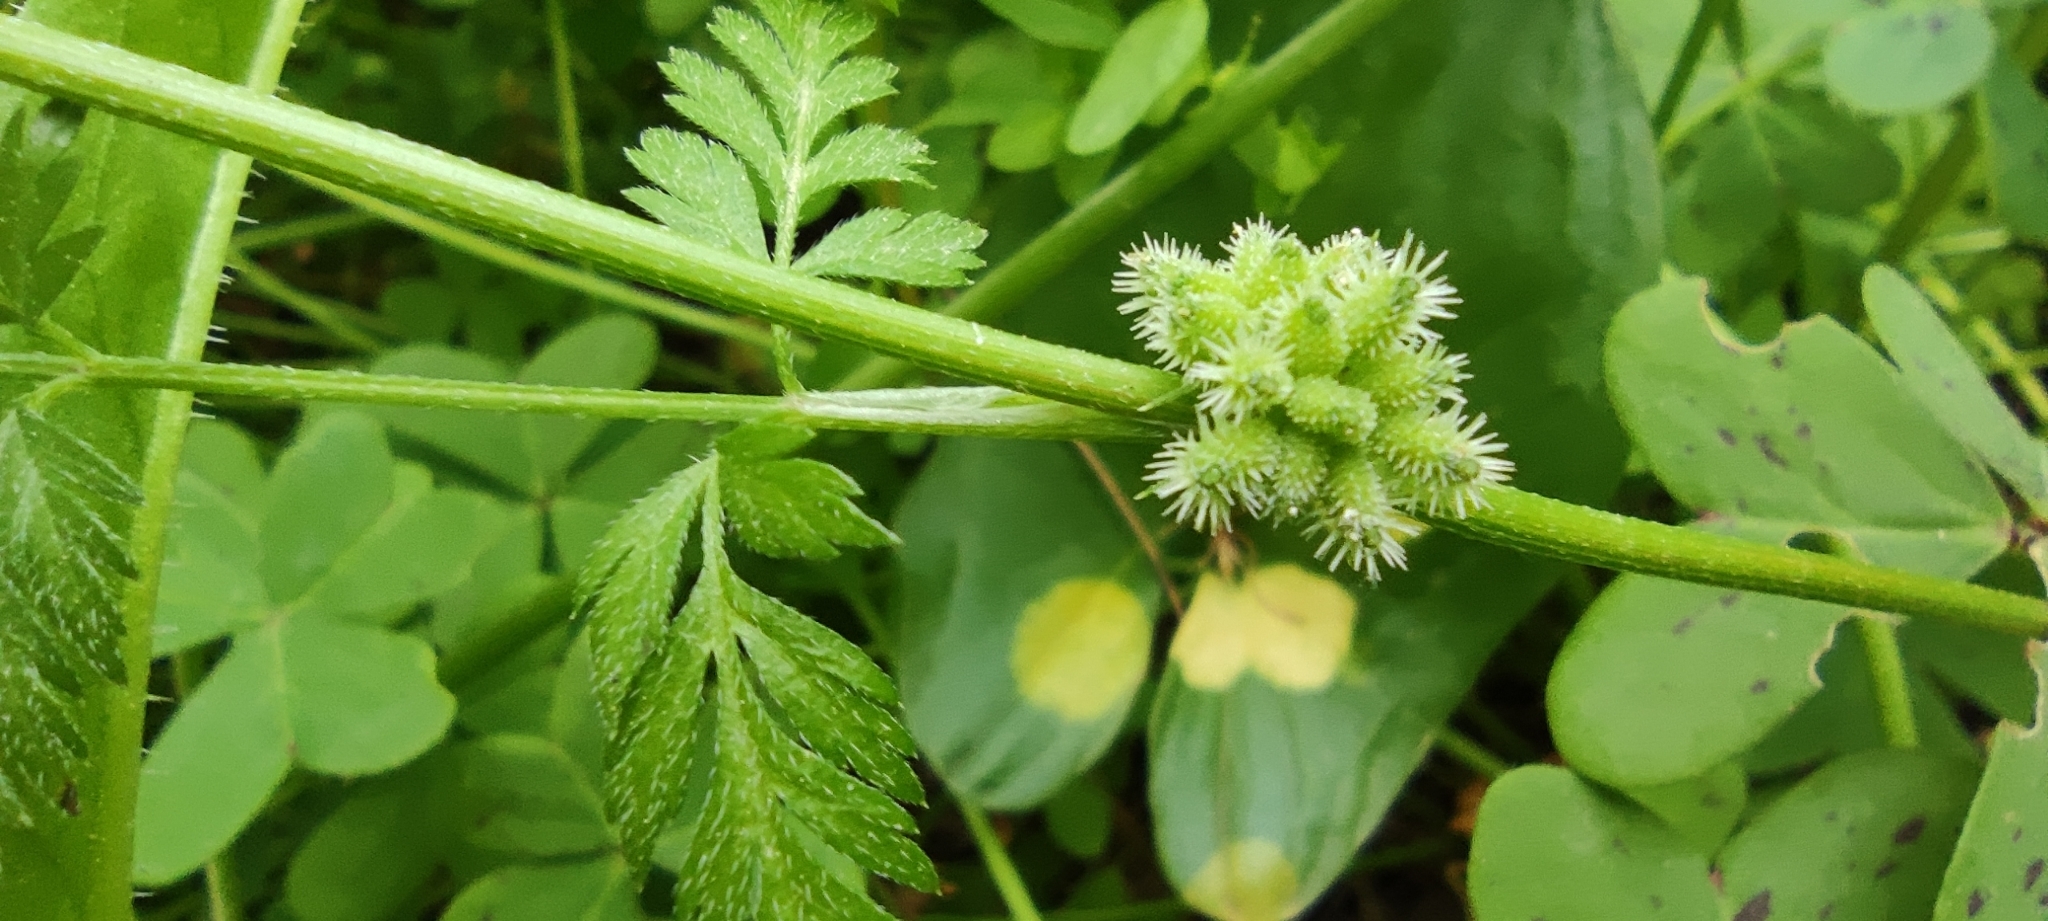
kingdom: Plantae
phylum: Tracheophyta
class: Magnoliopsida
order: Apiales
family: Apiaceae
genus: Torilis
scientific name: Torilis nodosa
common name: Knotted hedge-parsley
